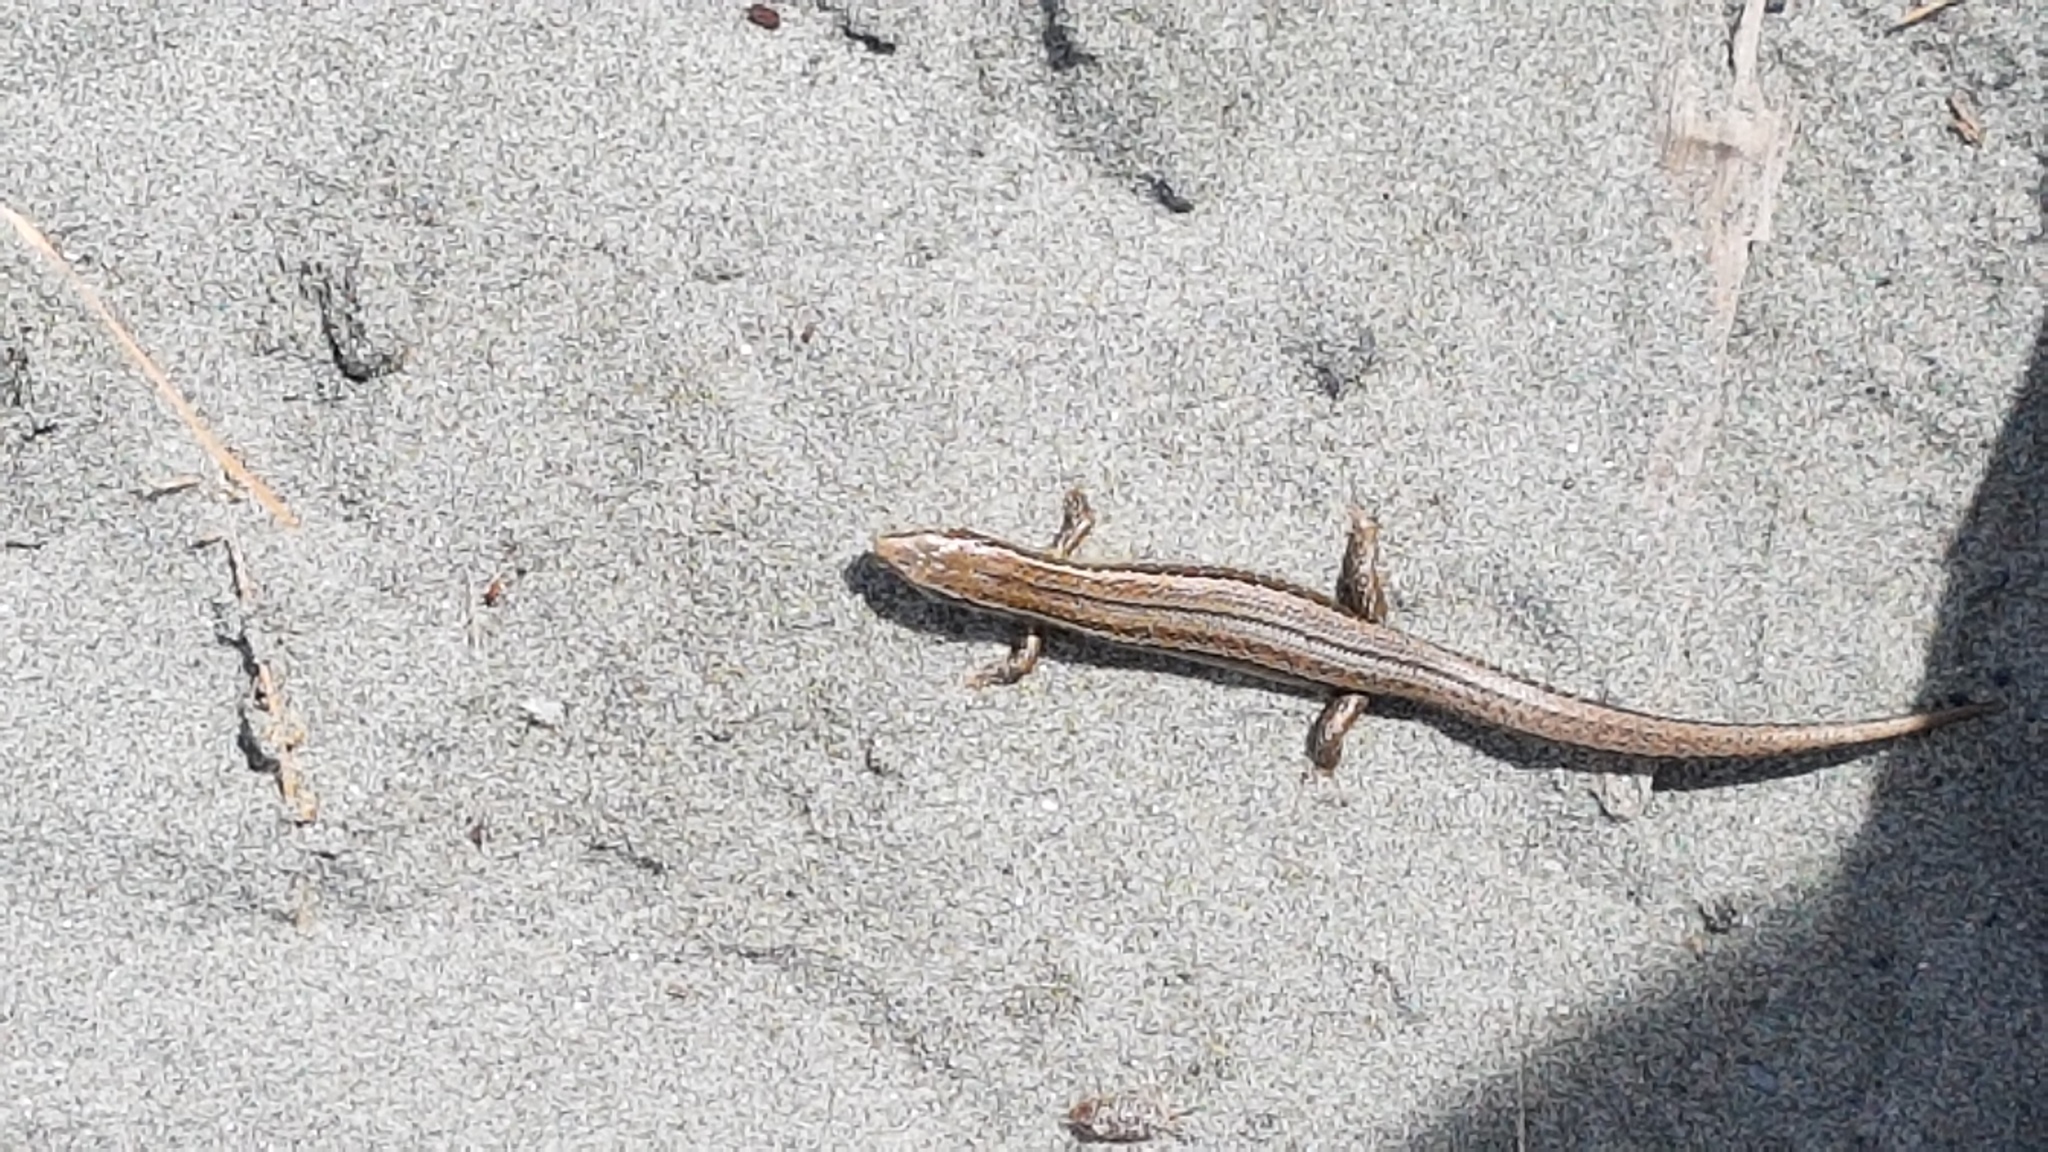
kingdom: Animalia
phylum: Chordata
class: Squamata
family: Scincidae
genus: Oligosoma
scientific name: Oligosoma polychroma
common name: Common new zealand skink
